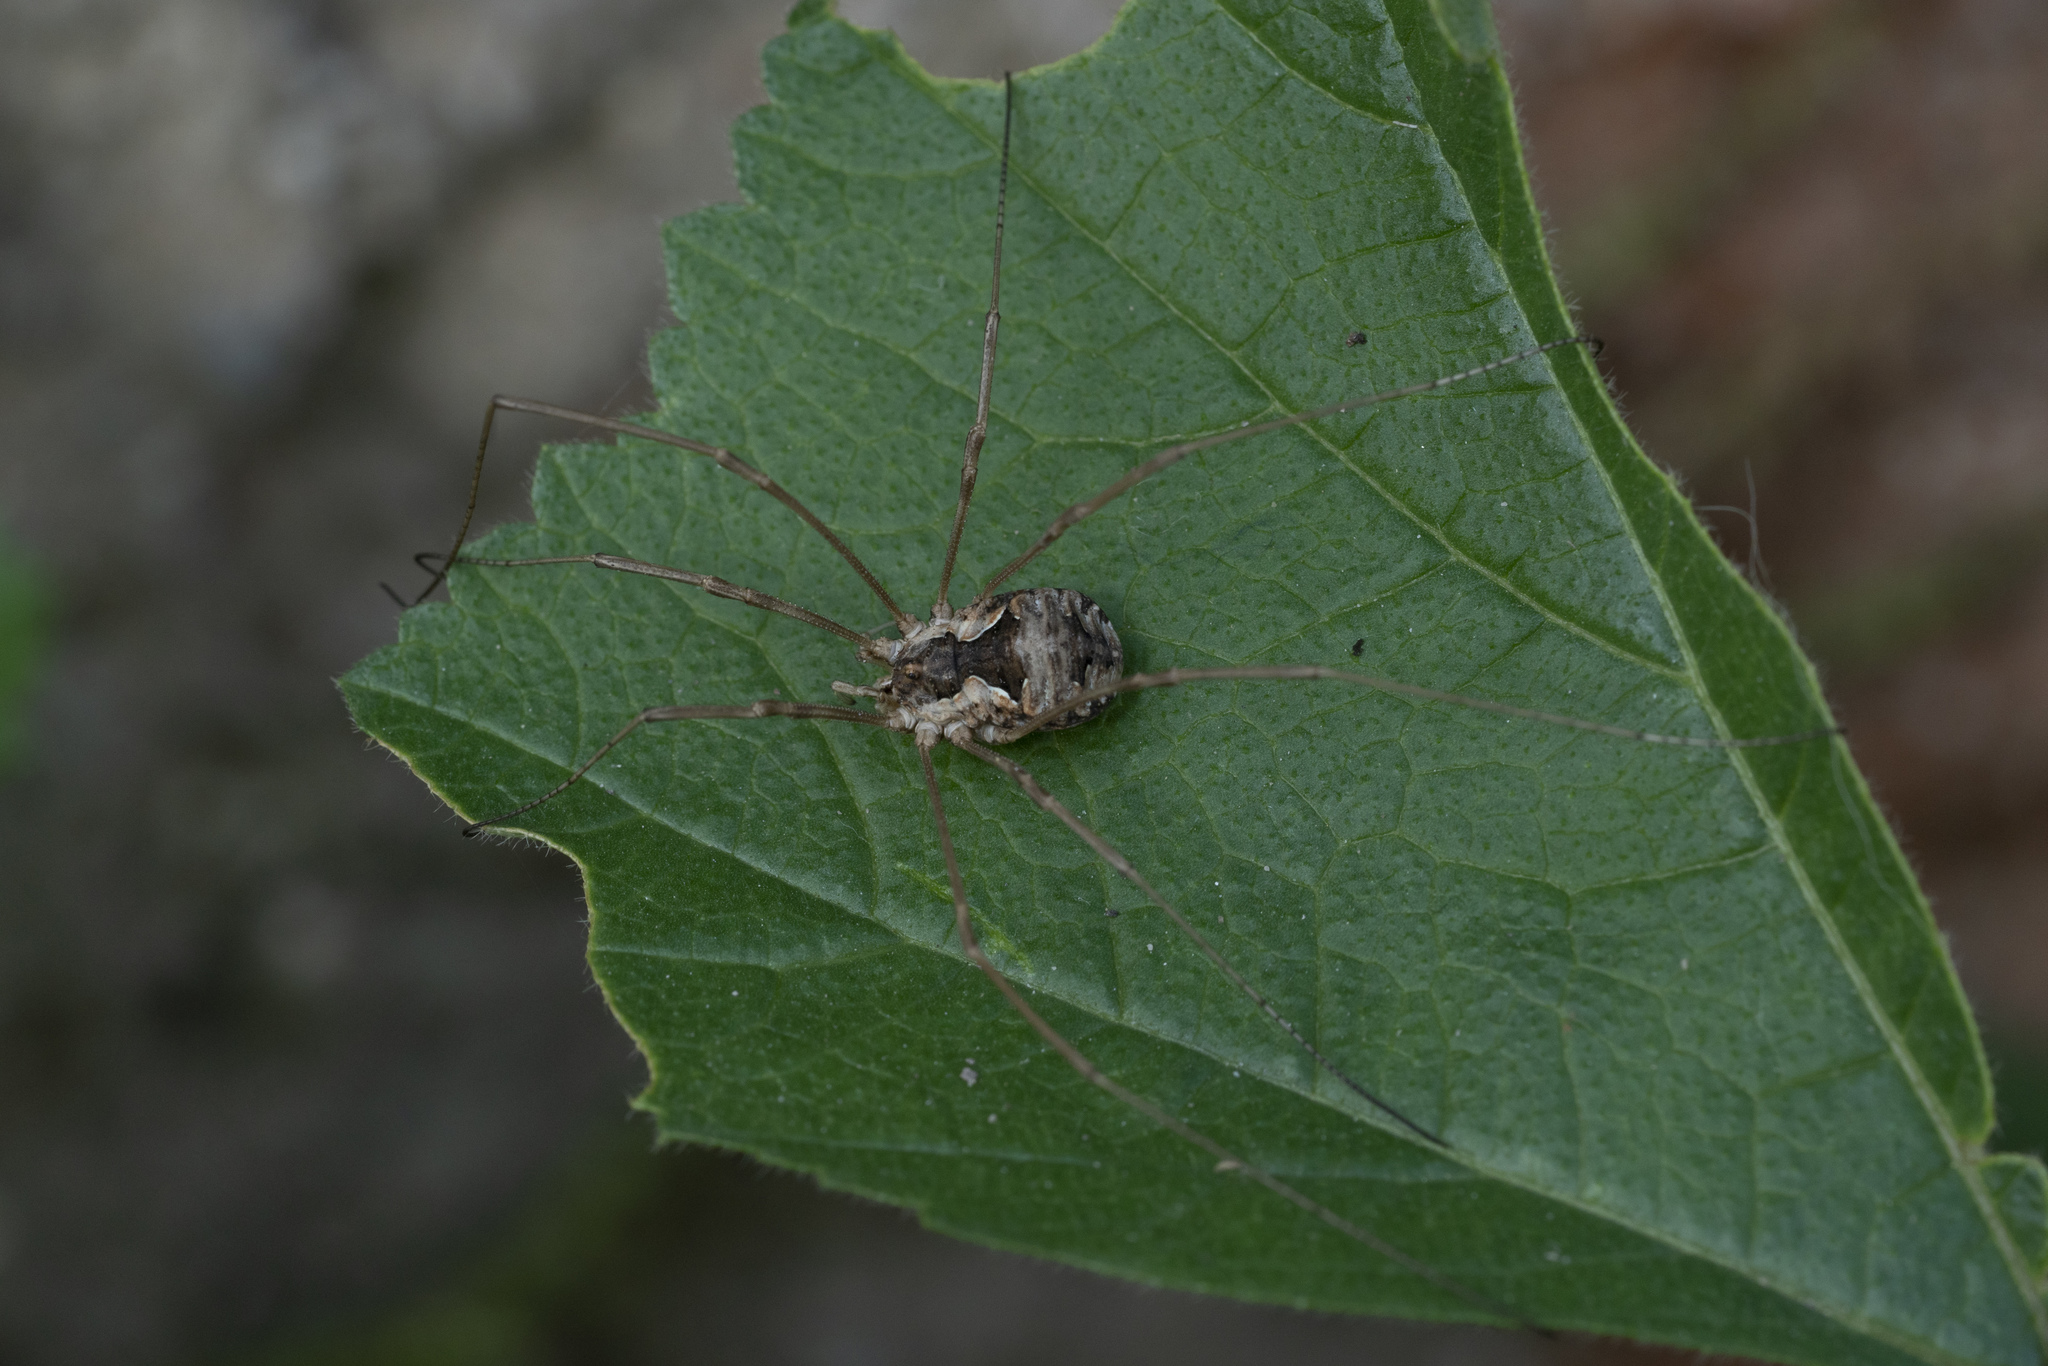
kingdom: Animalia
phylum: Arthropoda
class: Arachnida
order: Opiliones
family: Phalangiidae
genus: Metaphalangium
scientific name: Metaphalangium cirtanum
